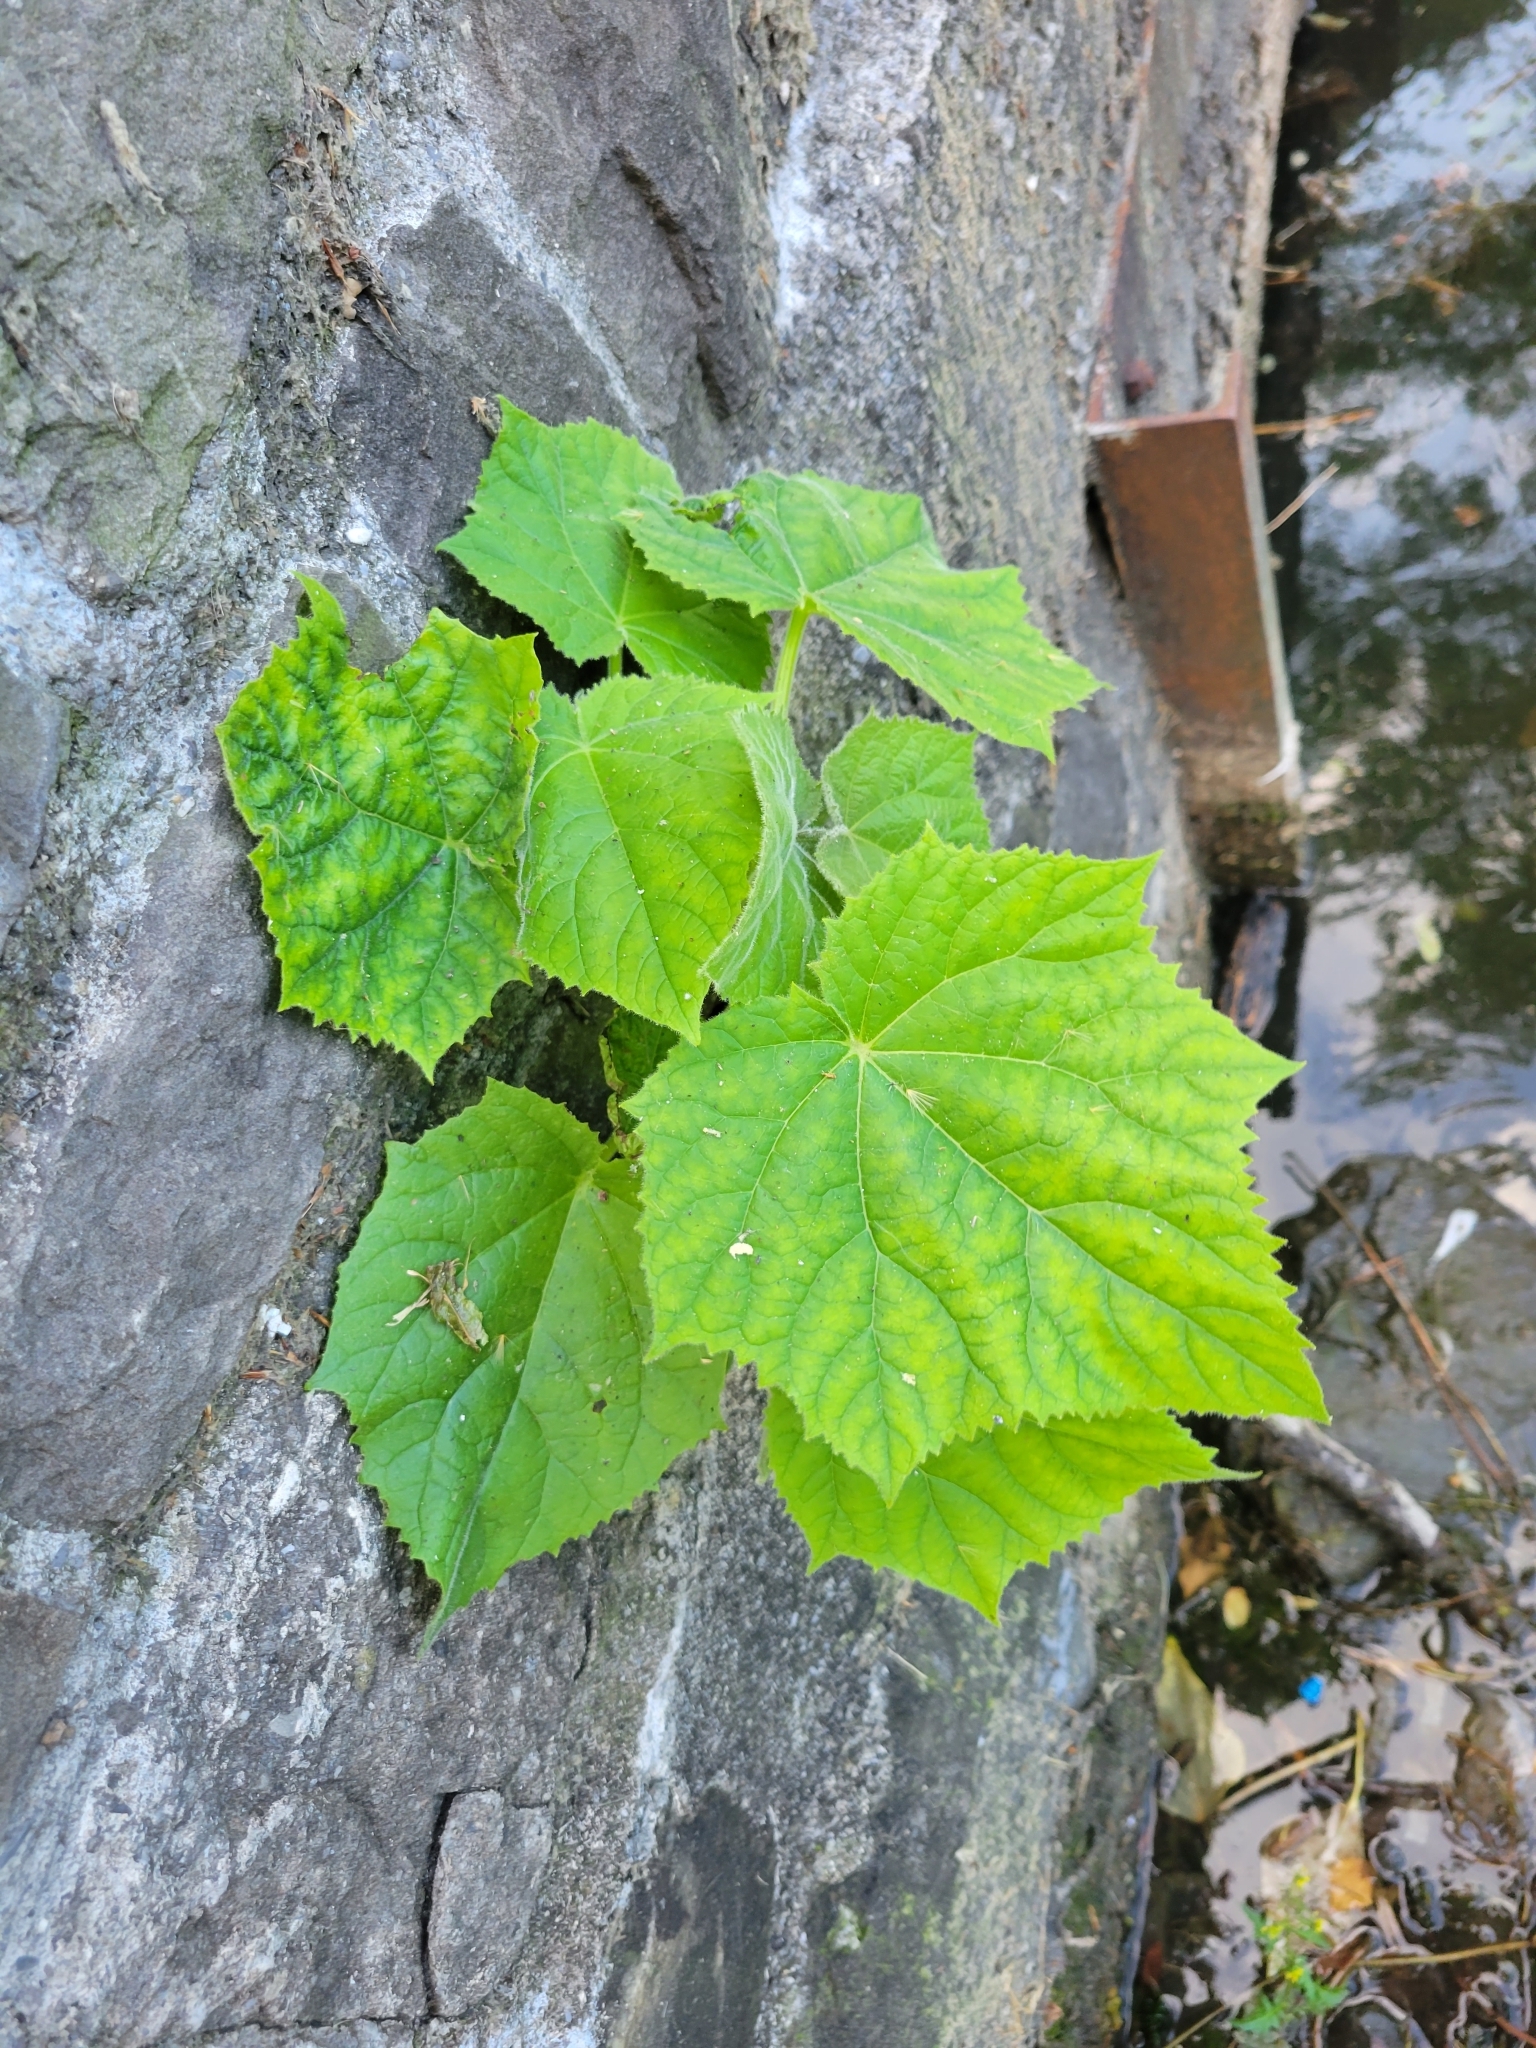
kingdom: Plantae
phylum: Tracheophyta
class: Magnoliopsida
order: Lamiales
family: Paulowniaceae
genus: Paulownia
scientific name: Paulownia tomentosa
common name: Foxglove-tree
